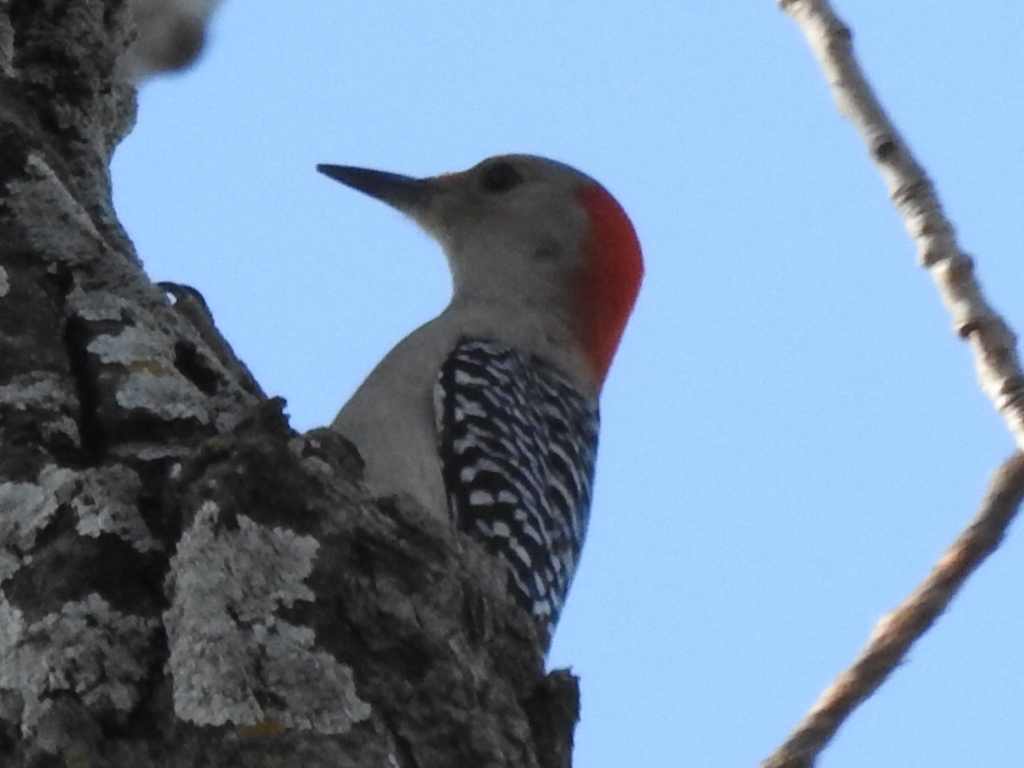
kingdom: Animalia
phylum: Chordata
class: Aves
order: Piciformes
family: Picidae
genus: Melanerpes
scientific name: Melanerpes carolinus
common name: Red-bellied woodpecker
